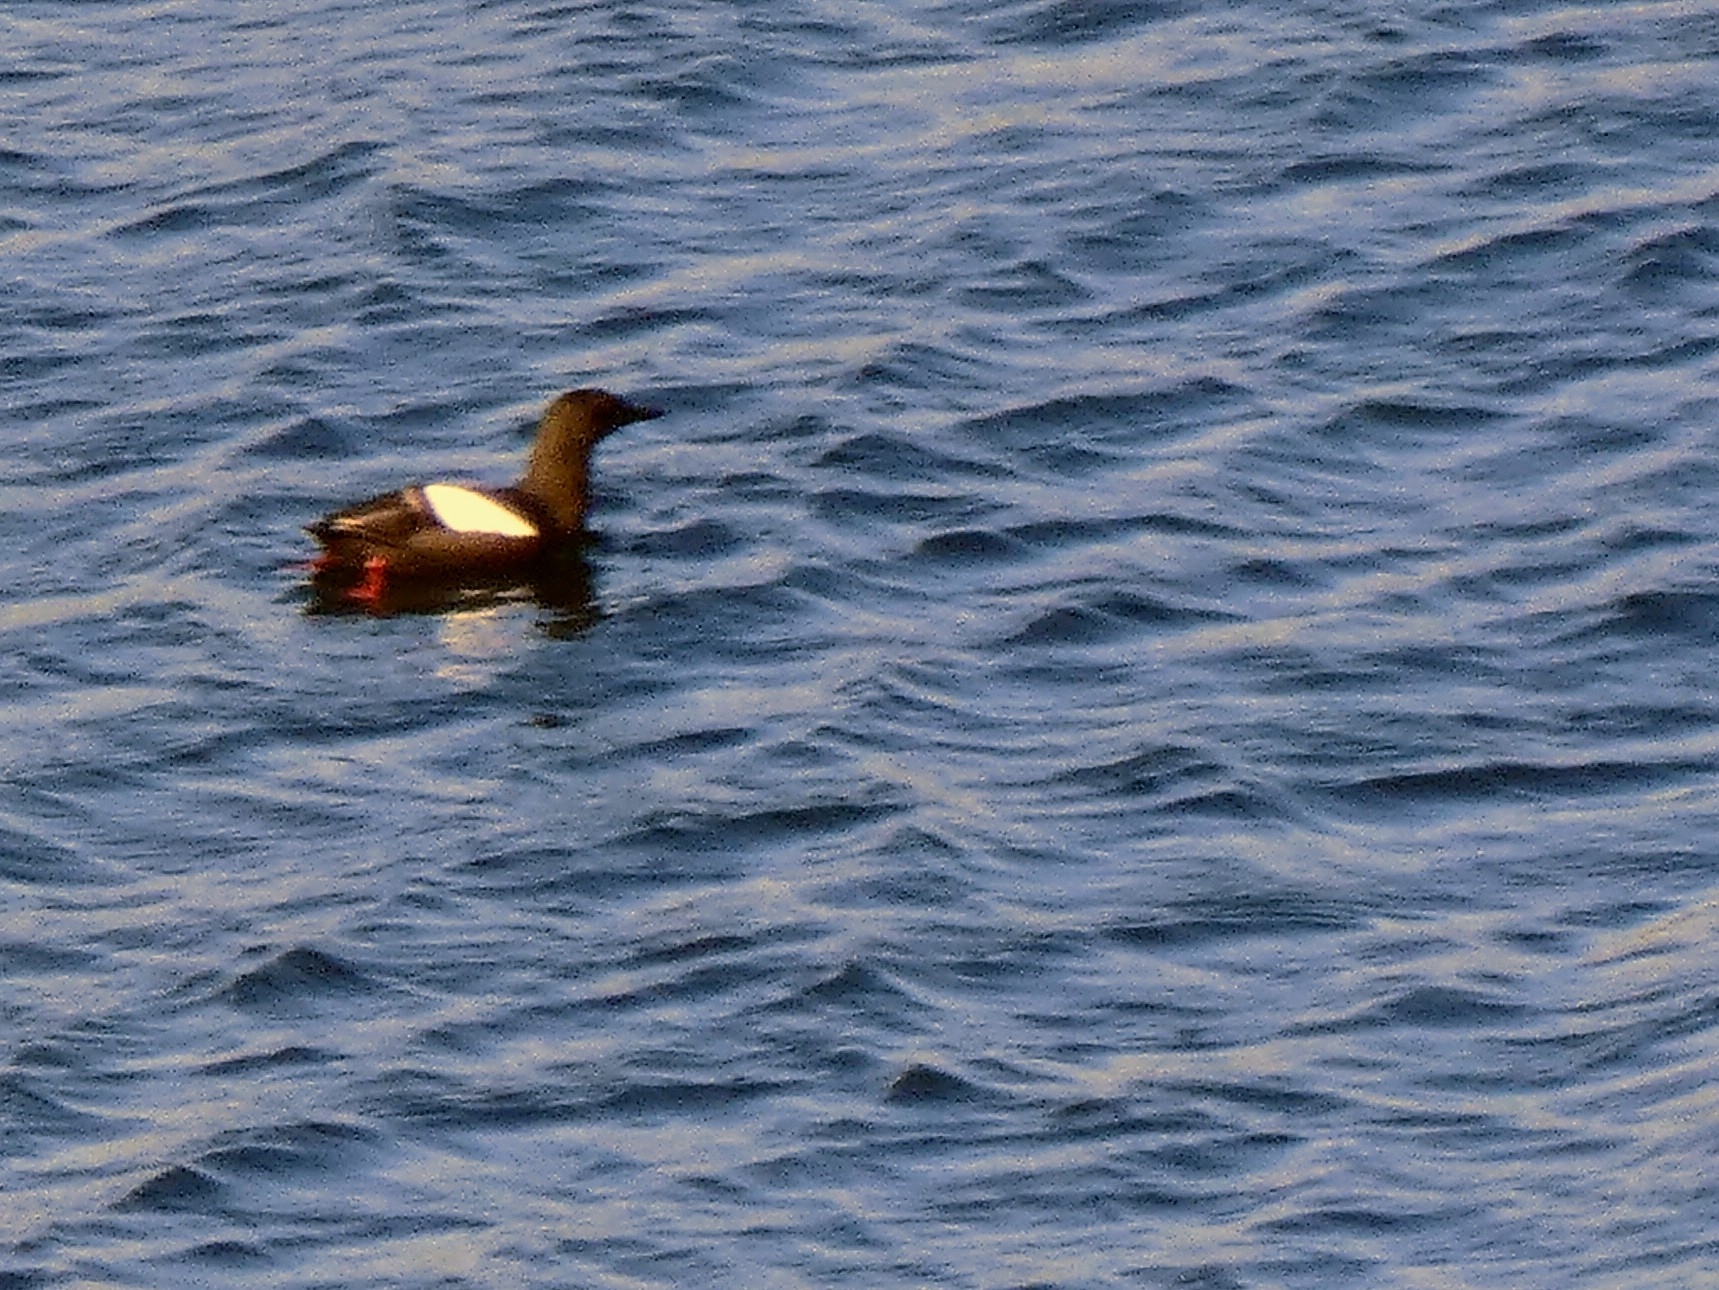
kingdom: Animalia
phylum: Chordata
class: Aves
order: Charadriiformes
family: Alcidae
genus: Cepphus
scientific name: Cepphus grylle
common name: Black guillemot
